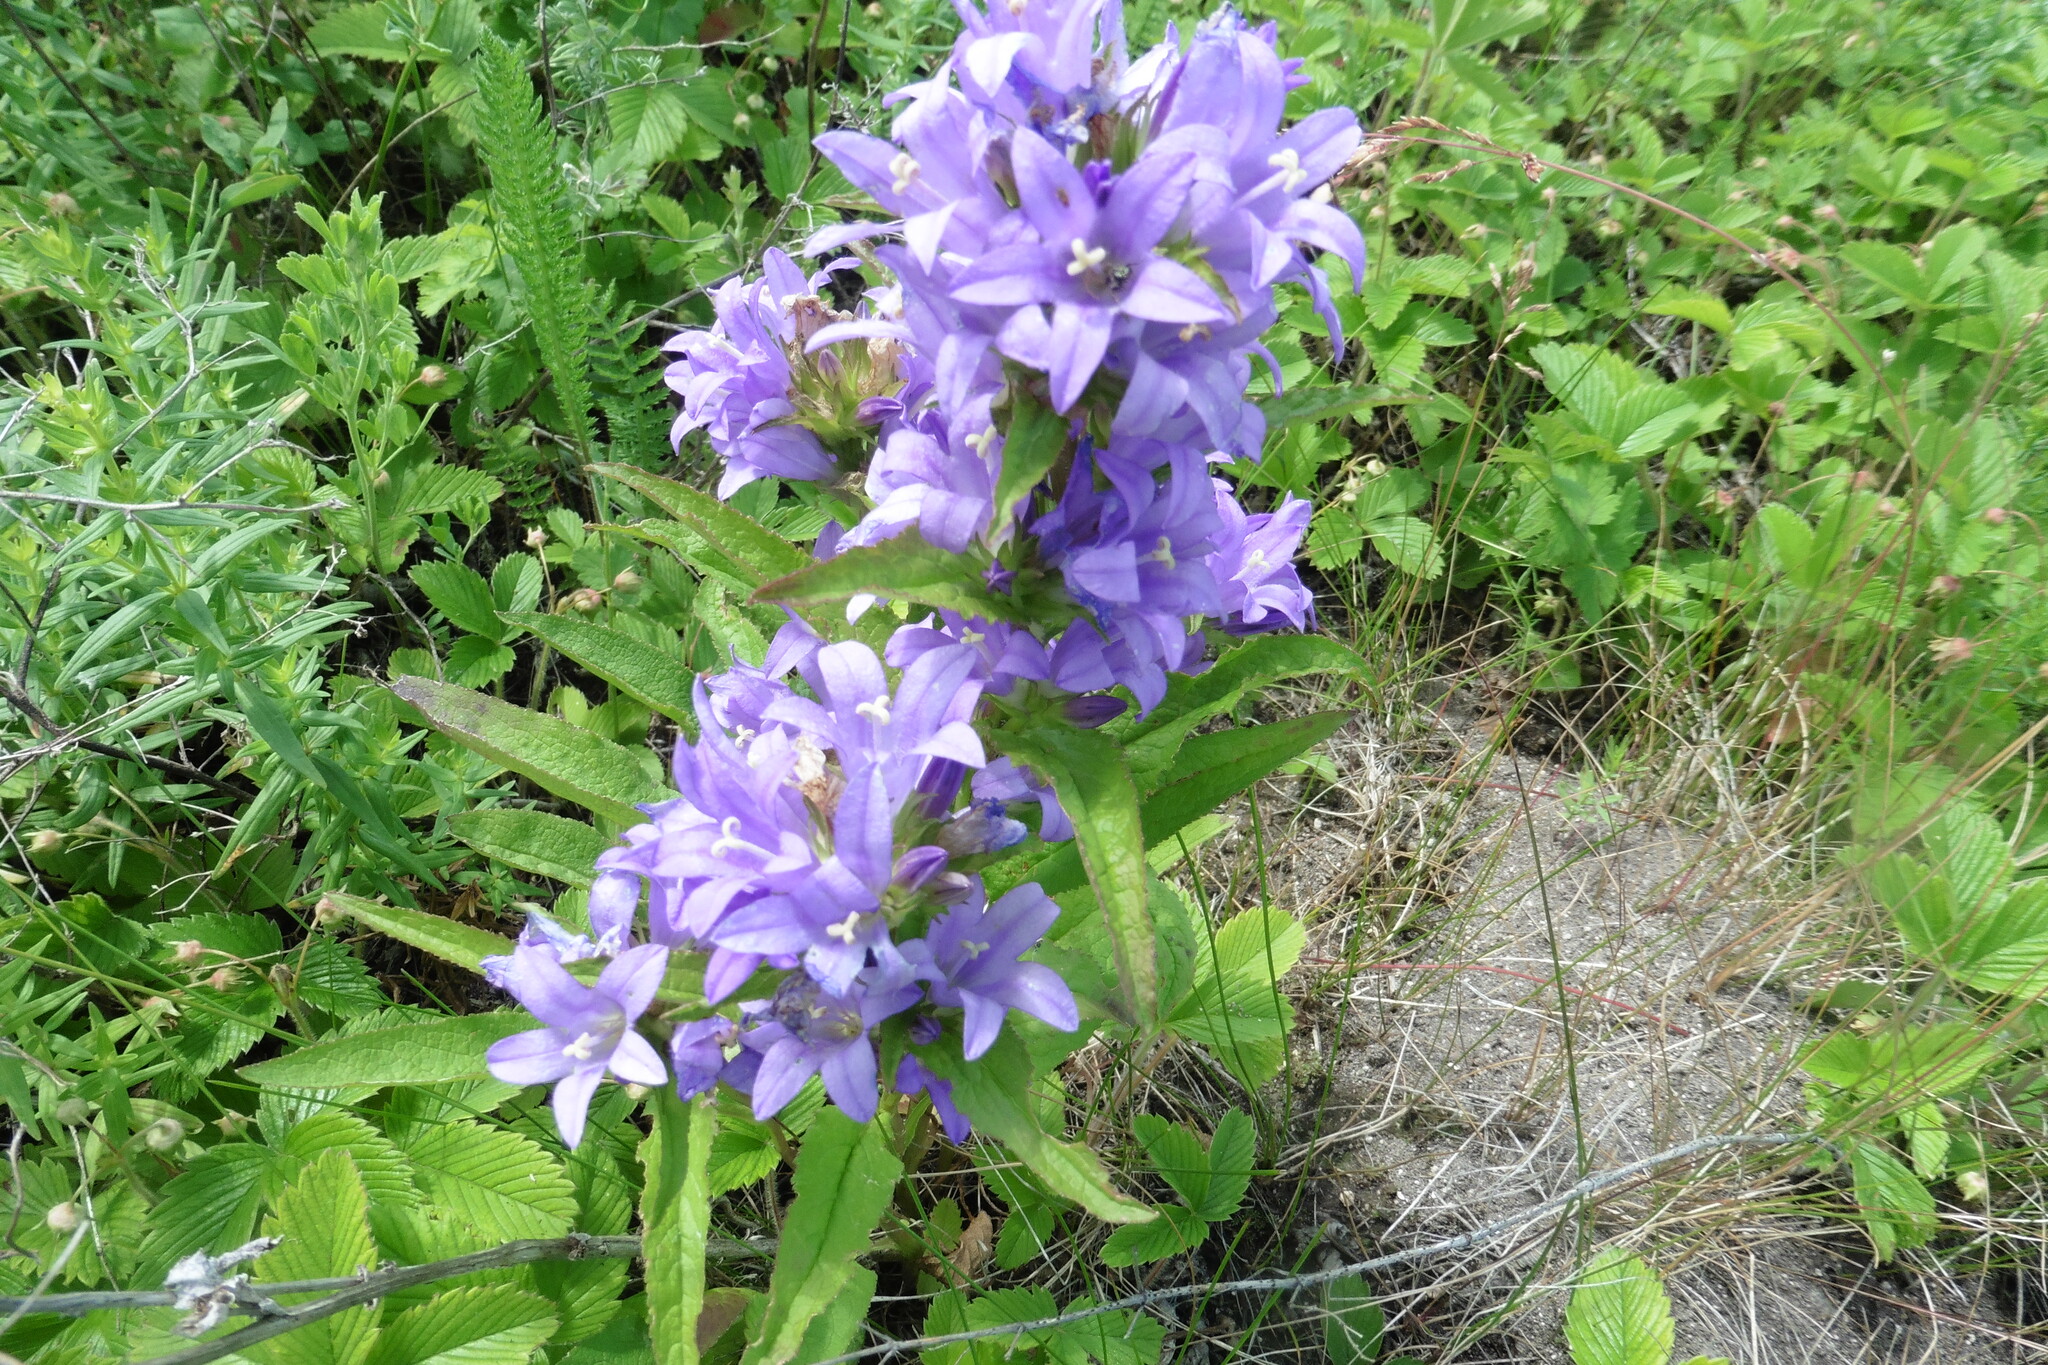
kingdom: Plantae
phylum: Tracheophyta
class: Magnoliopsida
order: Asterales
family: Campanulaceae
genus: Campanula
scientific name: Campanula glomerata
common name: Clustered bellflower
